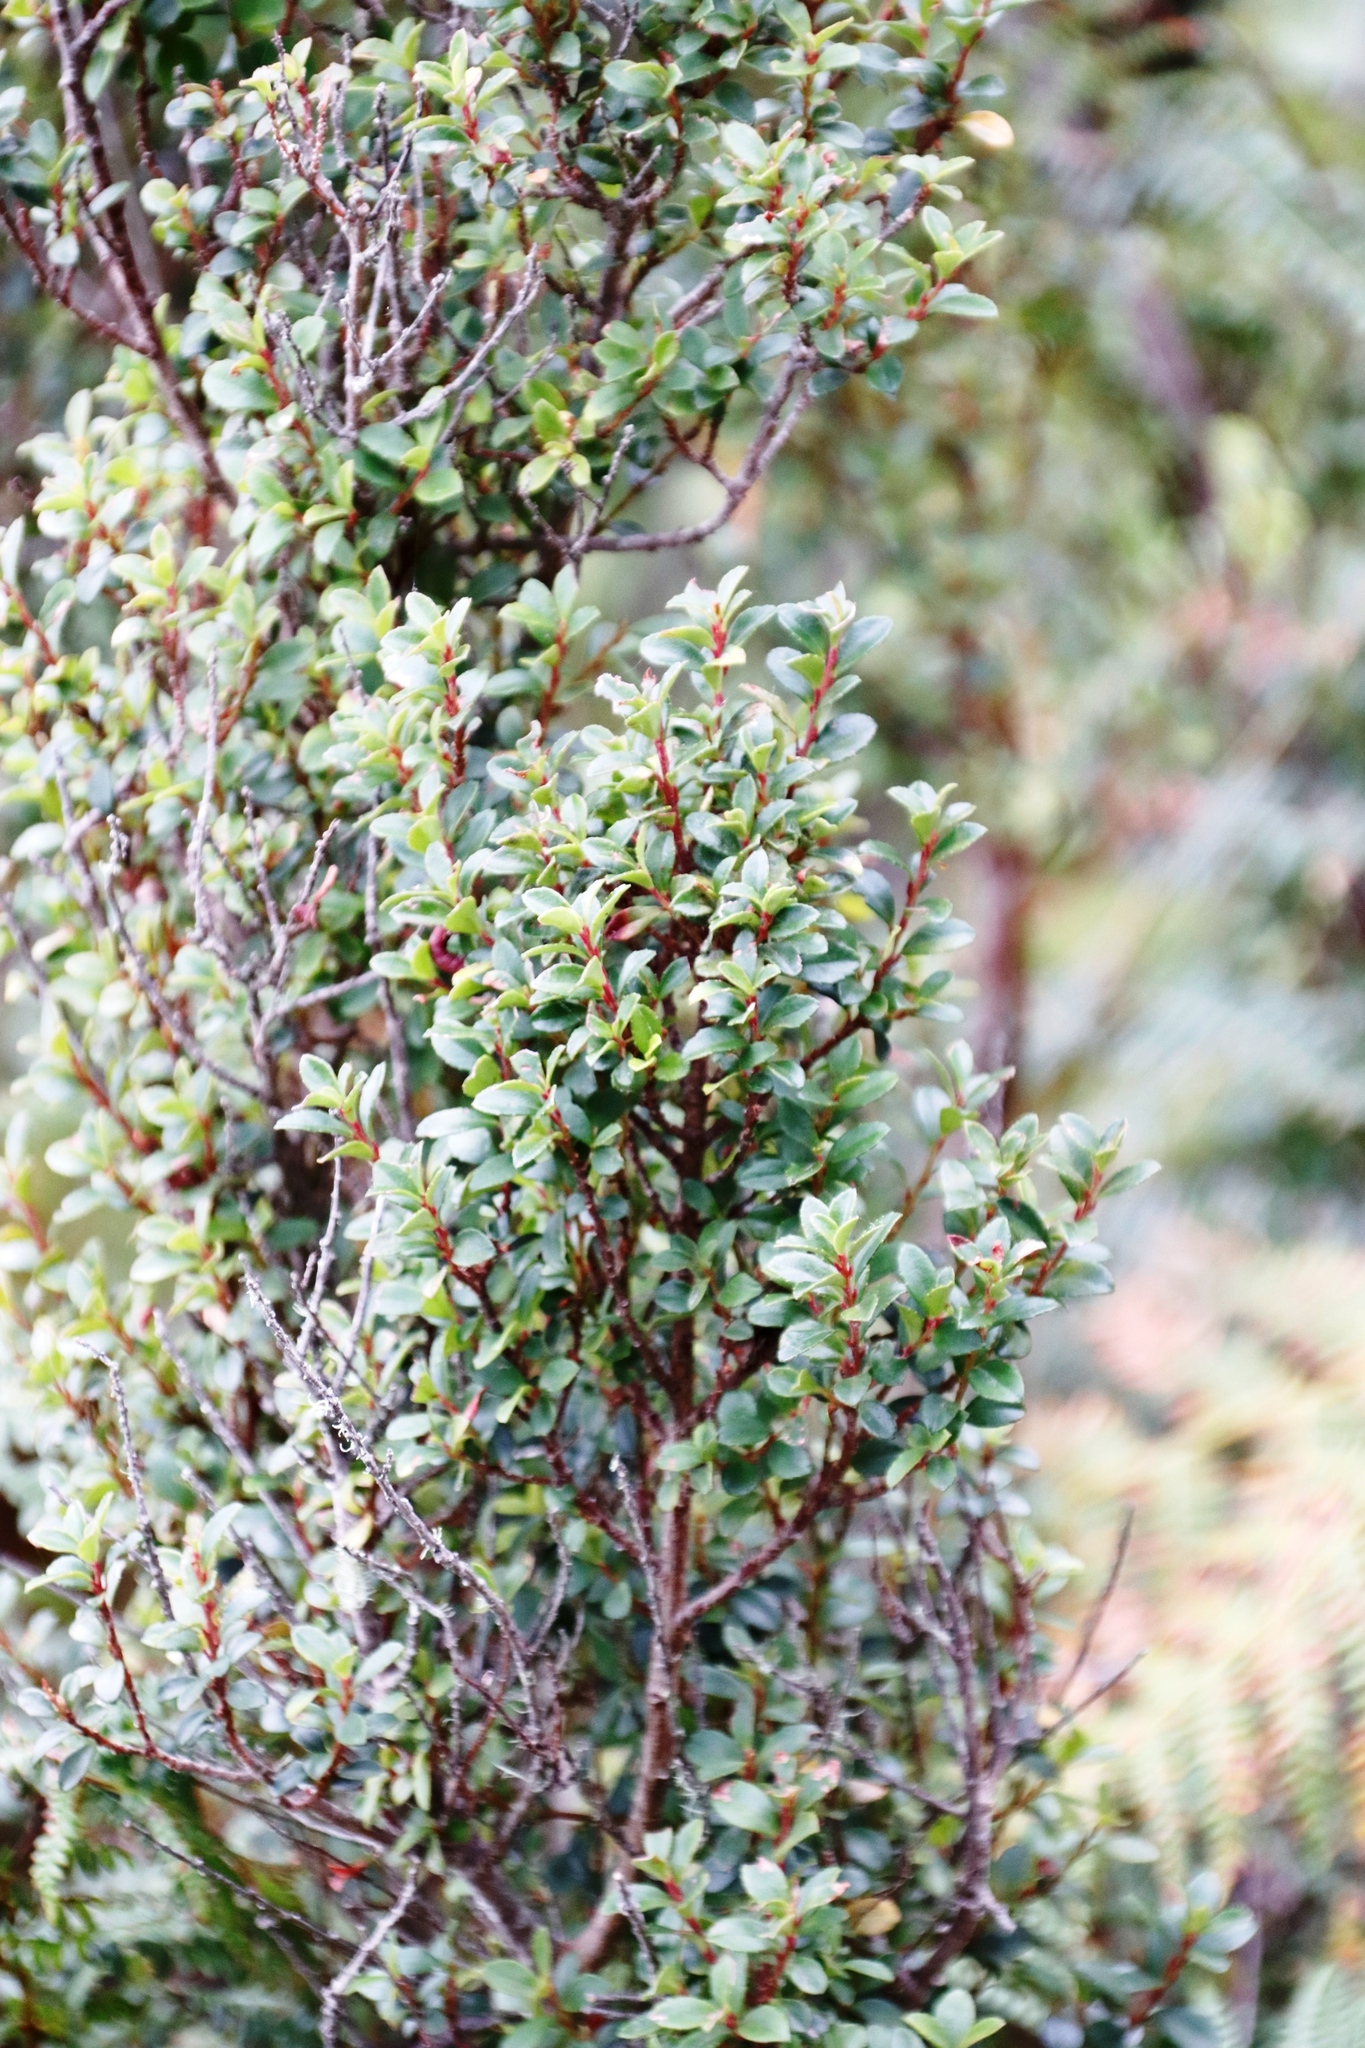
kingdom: Plantae
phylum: Tracheophyta
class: Magnoliopsida
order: Ericales
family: Primulaceae
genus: Myrsine
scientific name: Myrsine africana
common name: African-boxwood
